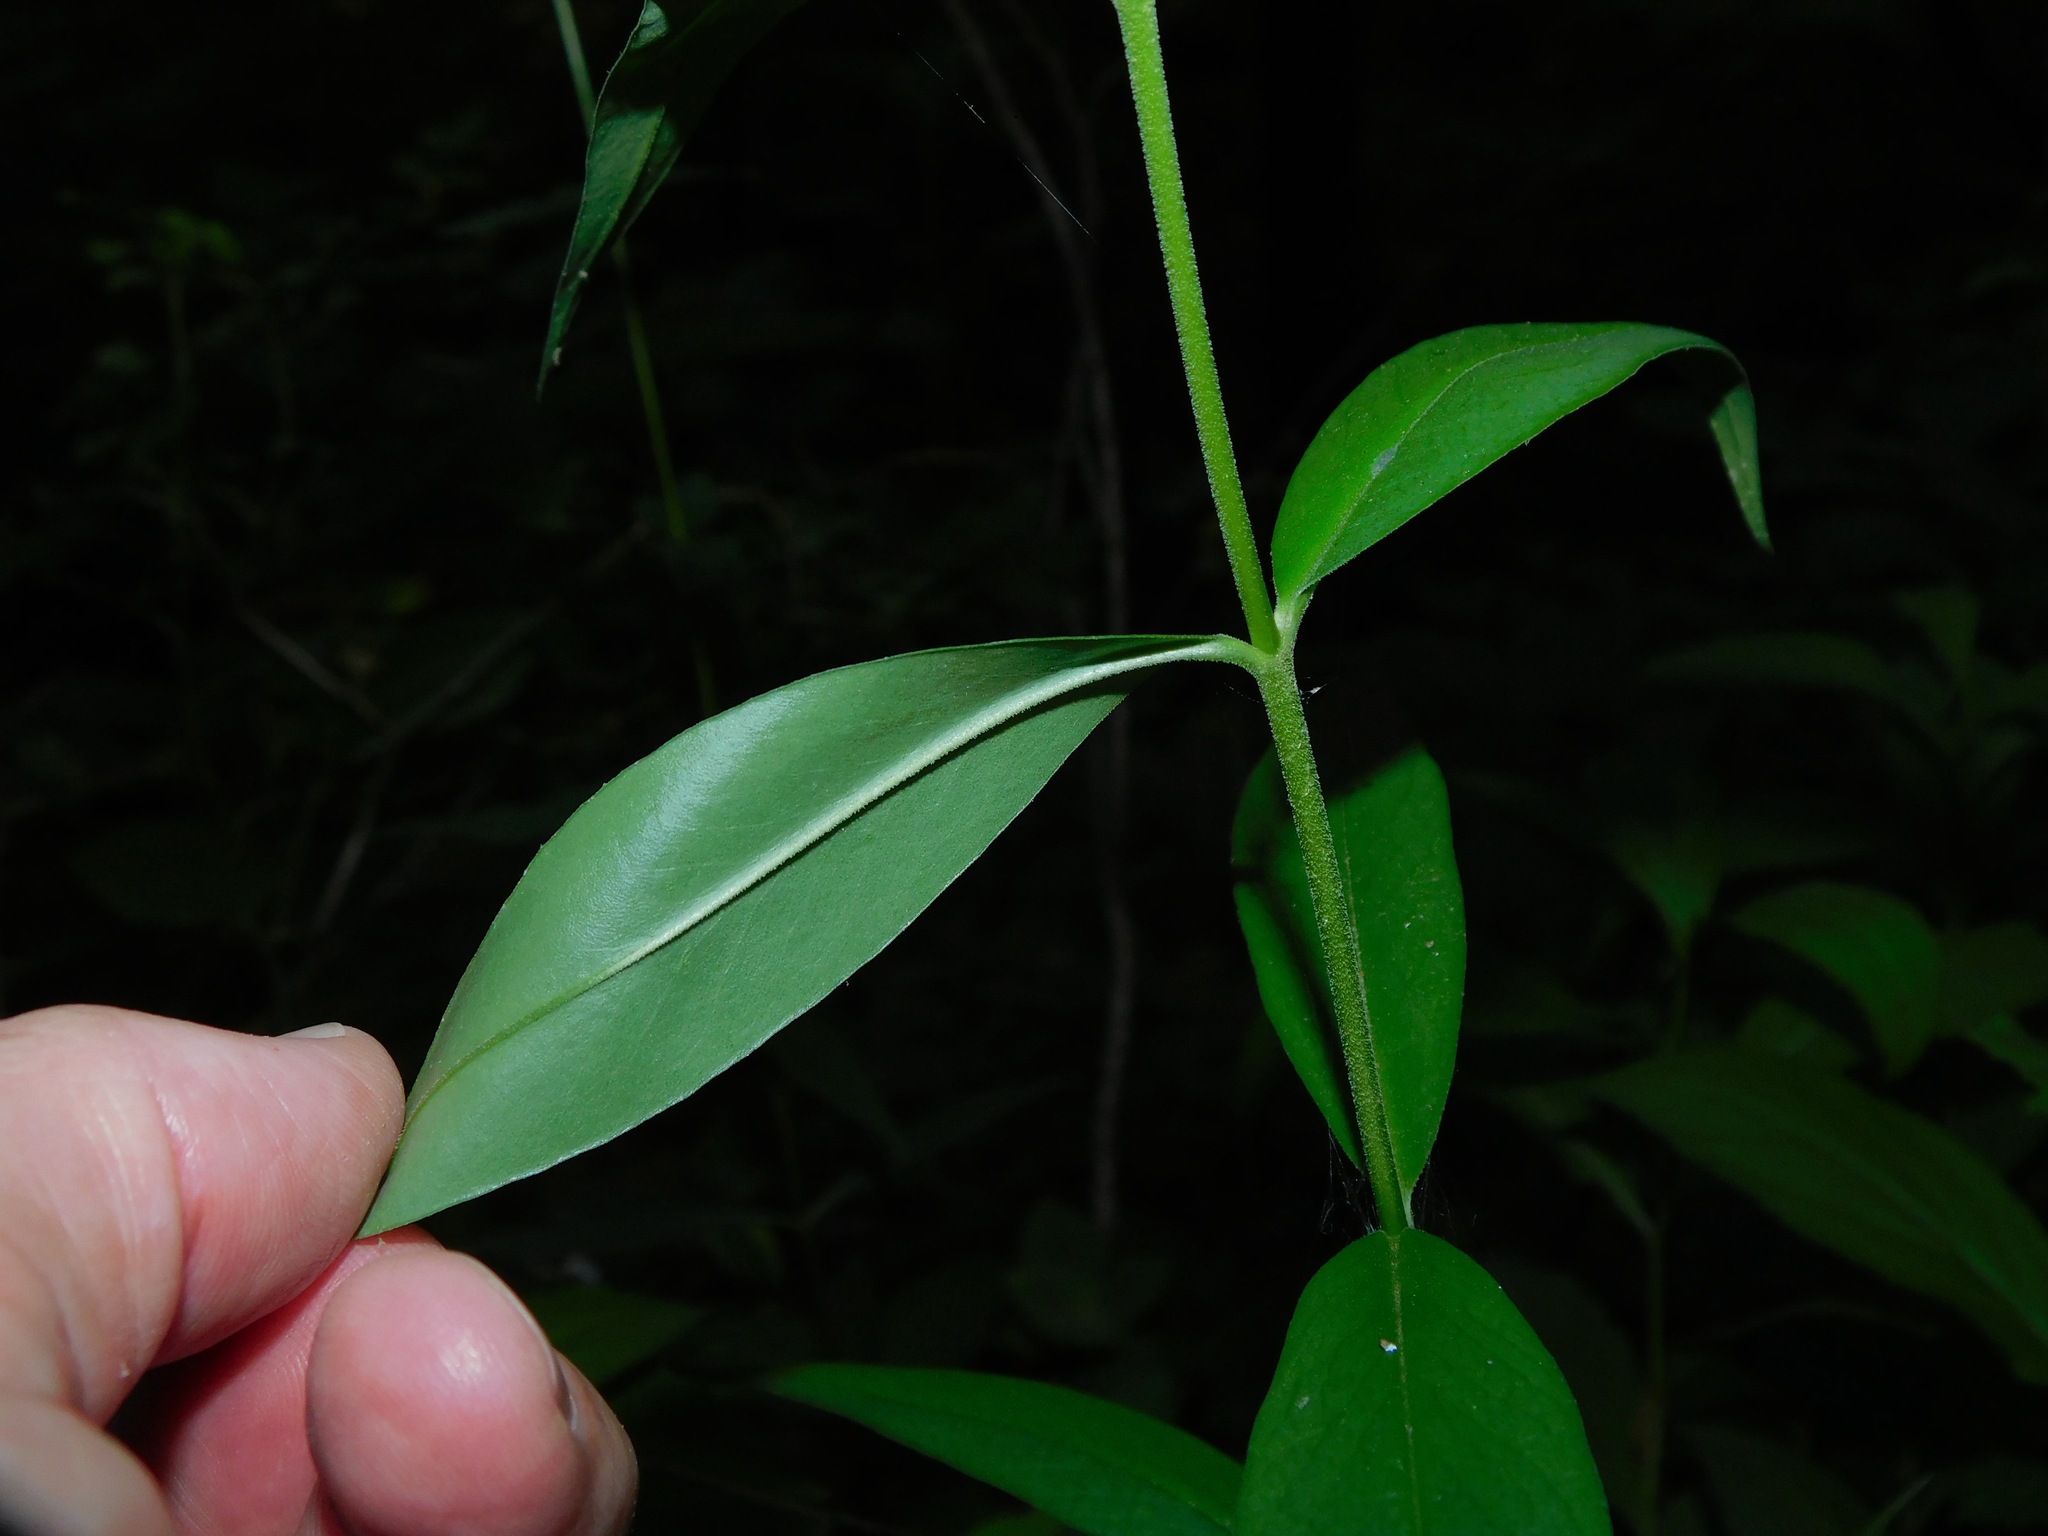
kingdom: Plantae
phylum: Tracheophyta
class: Magnoliopsida
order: Ericales
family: Polemoniaceae
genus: Phlox
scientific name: Phlox carolina
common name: Thick-leaf phlox
